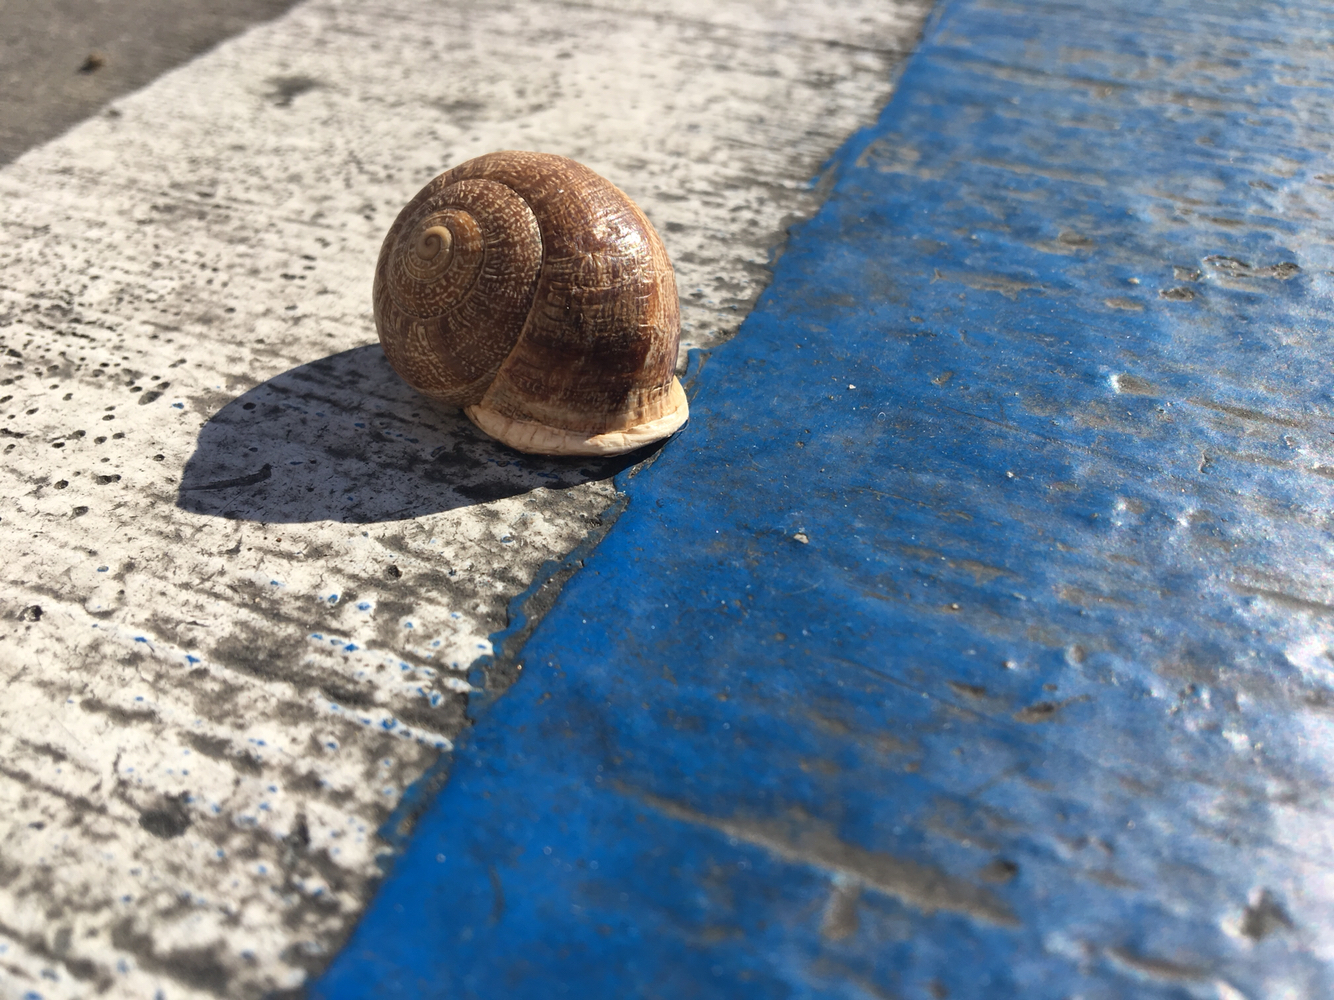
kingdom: Animalia
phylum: Mollusca
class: Gastropoda
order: Stylommatophora
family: Helicidae
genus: Otala
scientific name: Otala lactea
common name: Milk snail
